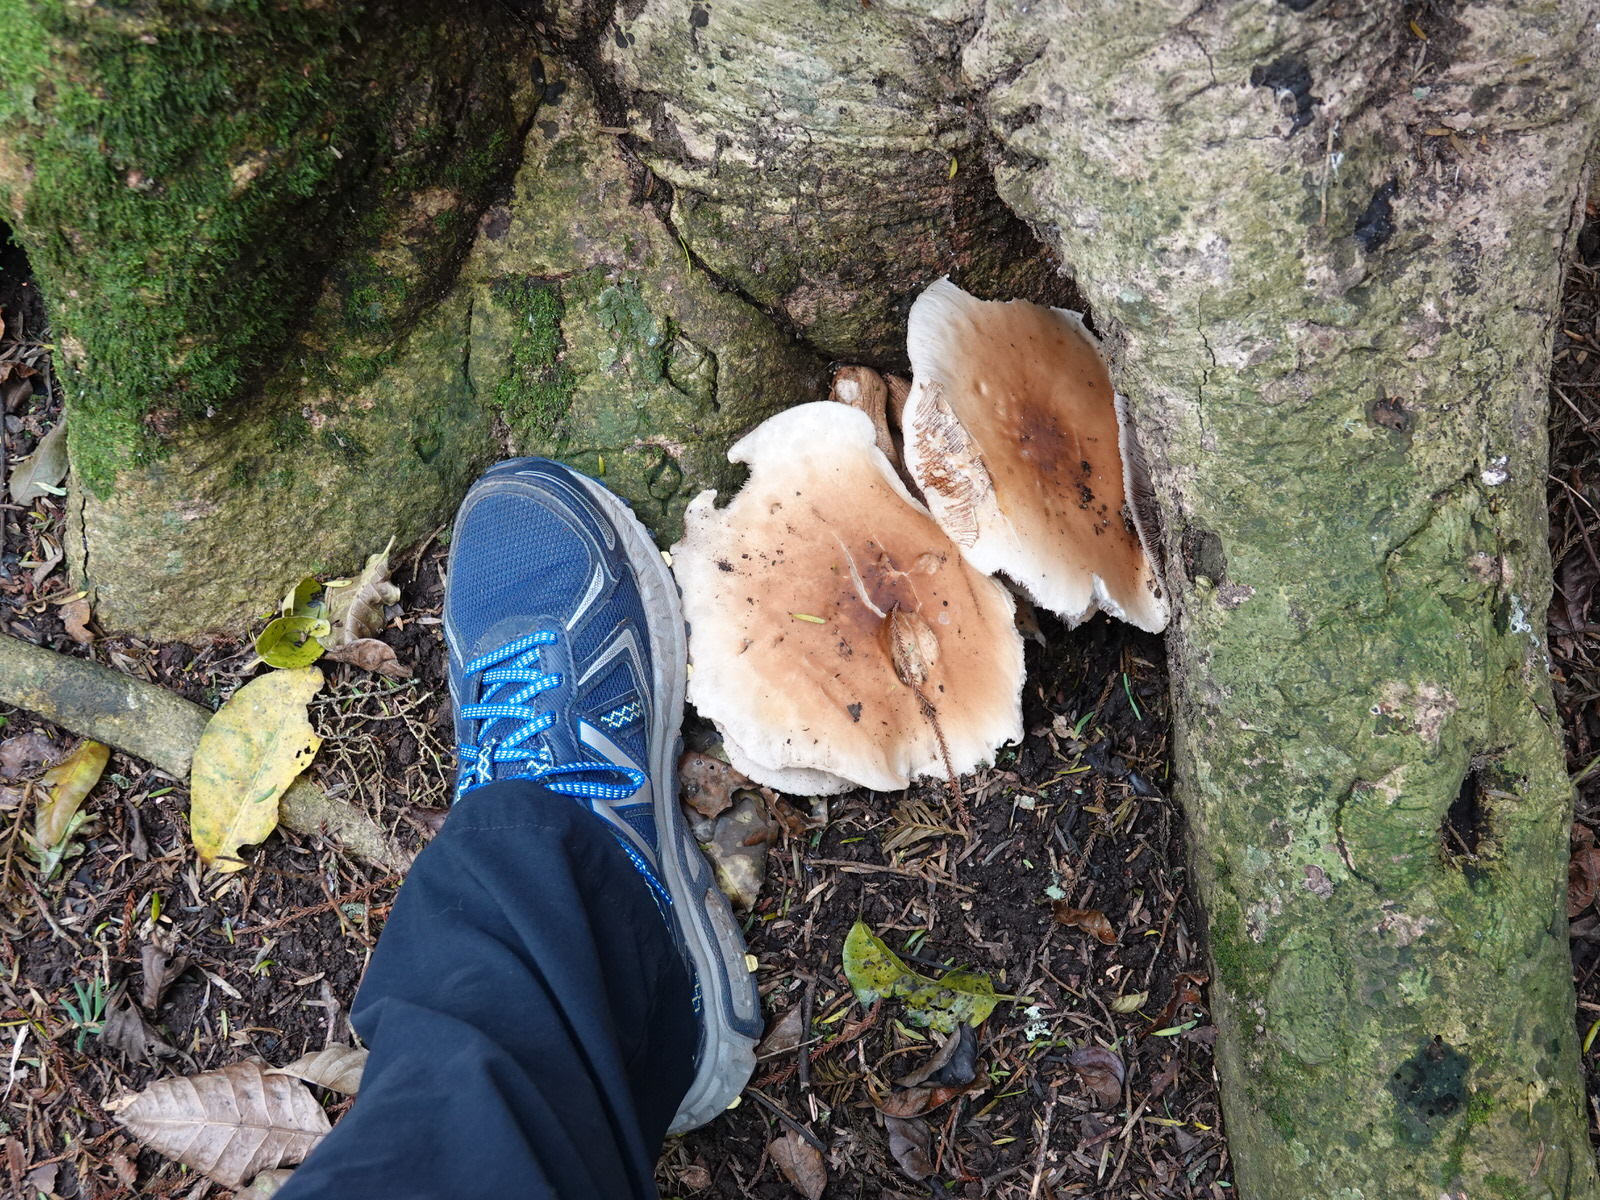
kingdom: Fungi
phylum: Basidiomycota
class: Agaricomycetes
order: Agaricales
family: Tubariaceae
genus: Cyclocybe
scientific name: Cyclocybe parasitica
